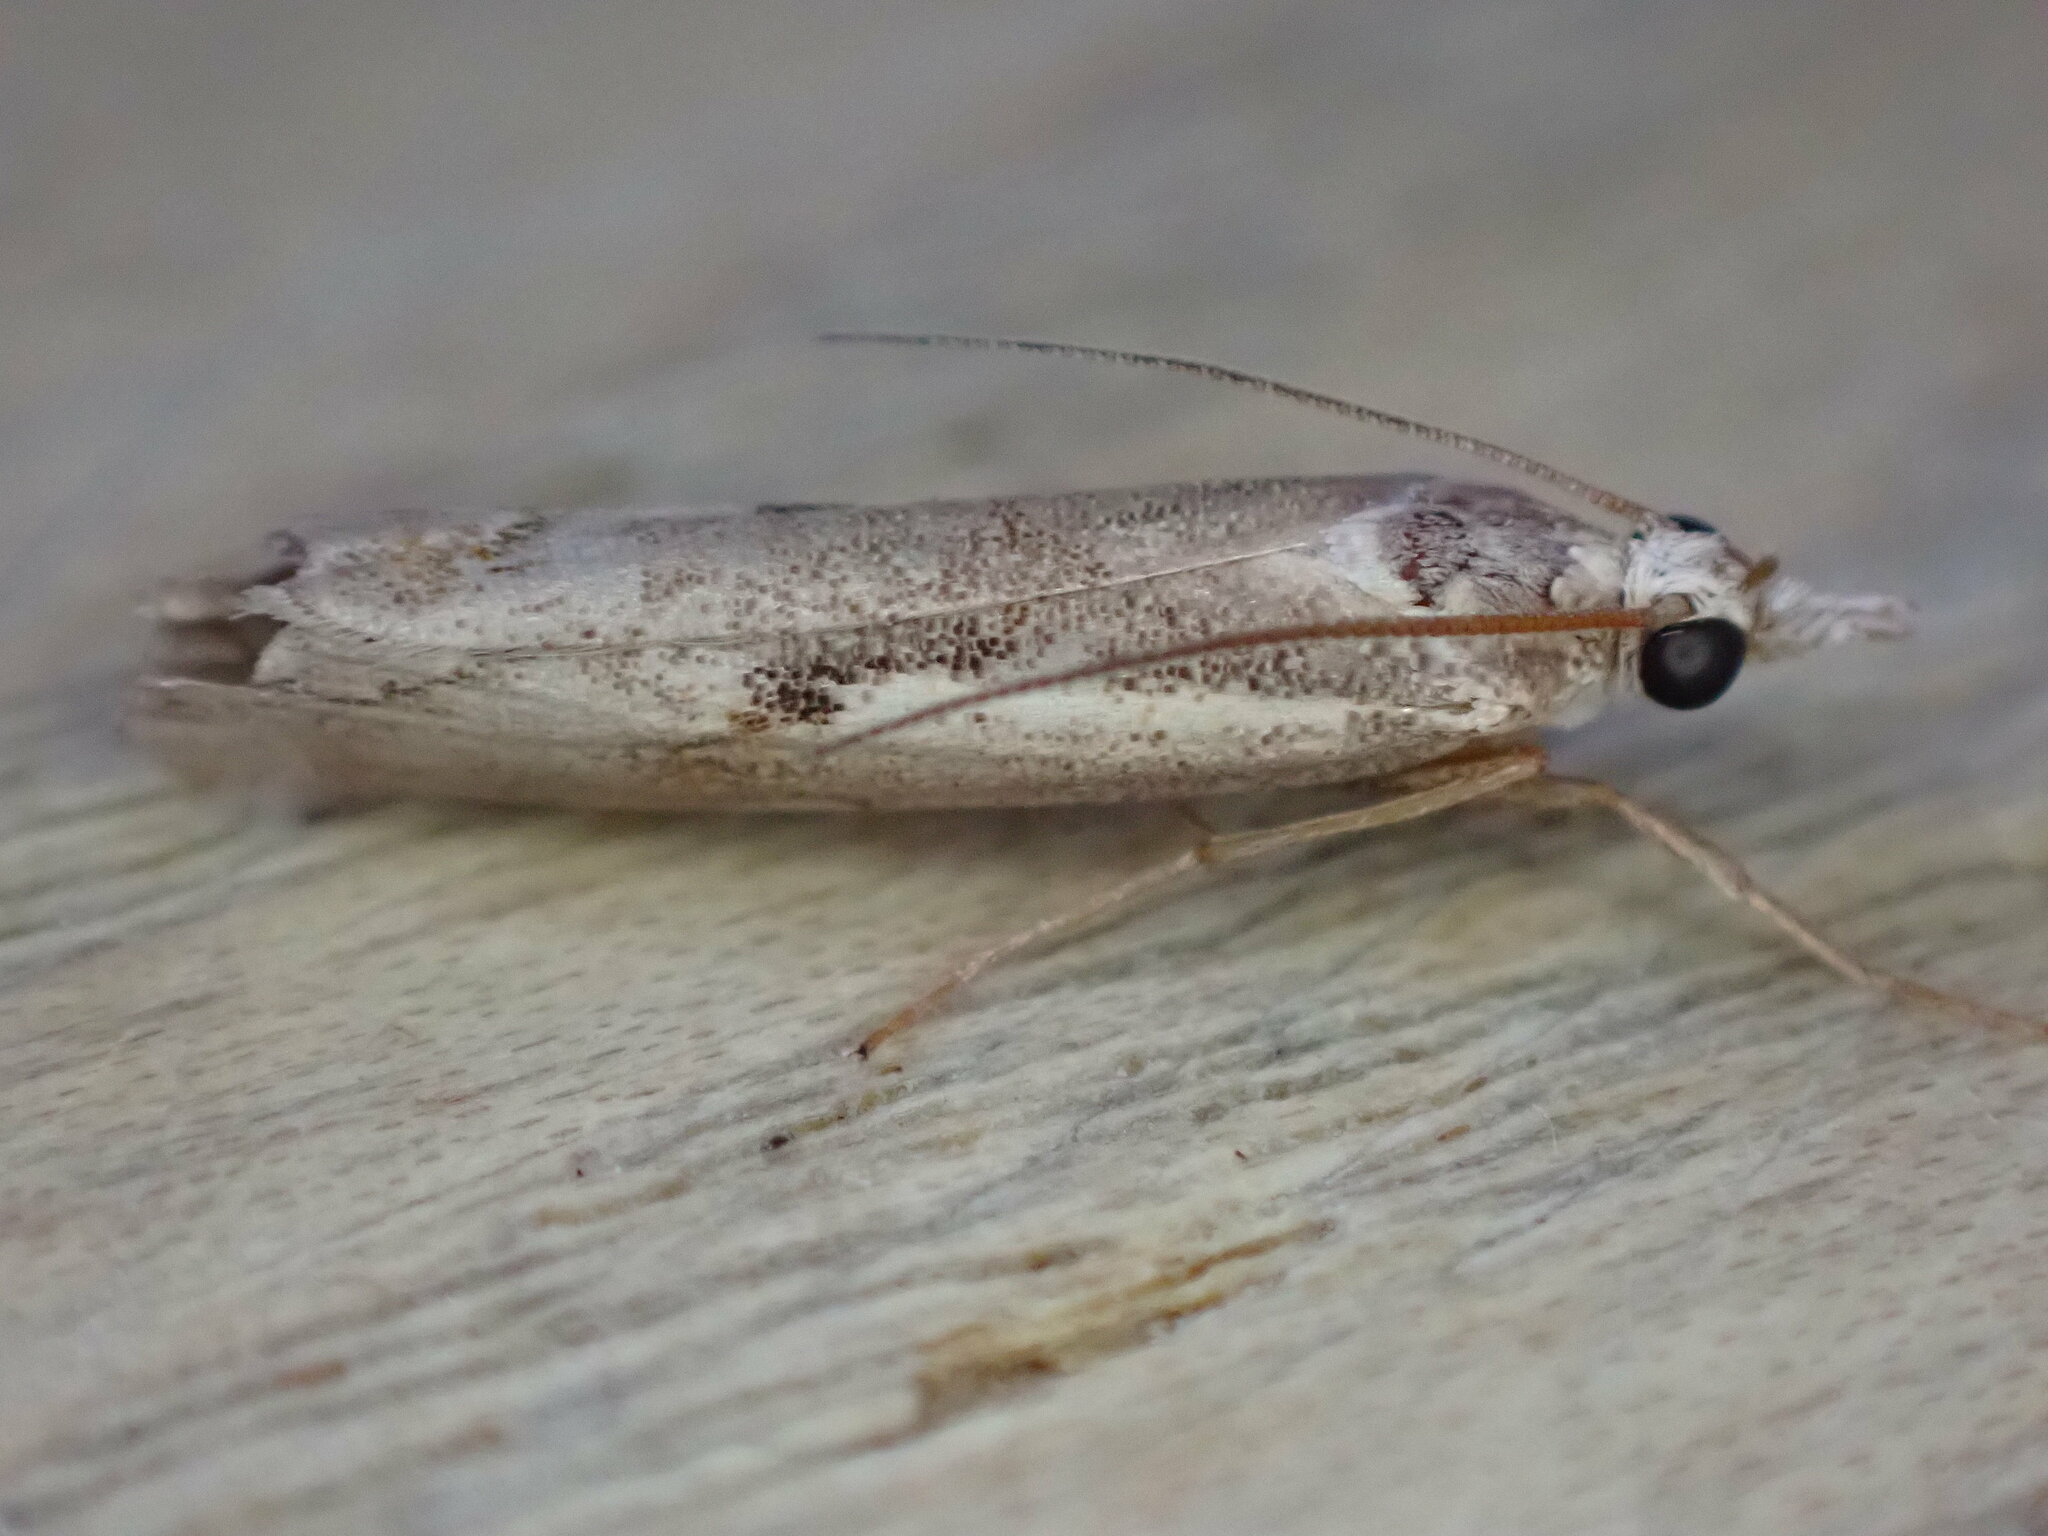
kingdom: Animalia
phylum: Arthropoda
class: Insecta
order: Lepidoptera
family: Crambidae
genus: Agriphila
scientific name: Agriphila geniculea
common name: Elbow-stripe grass-veneer
